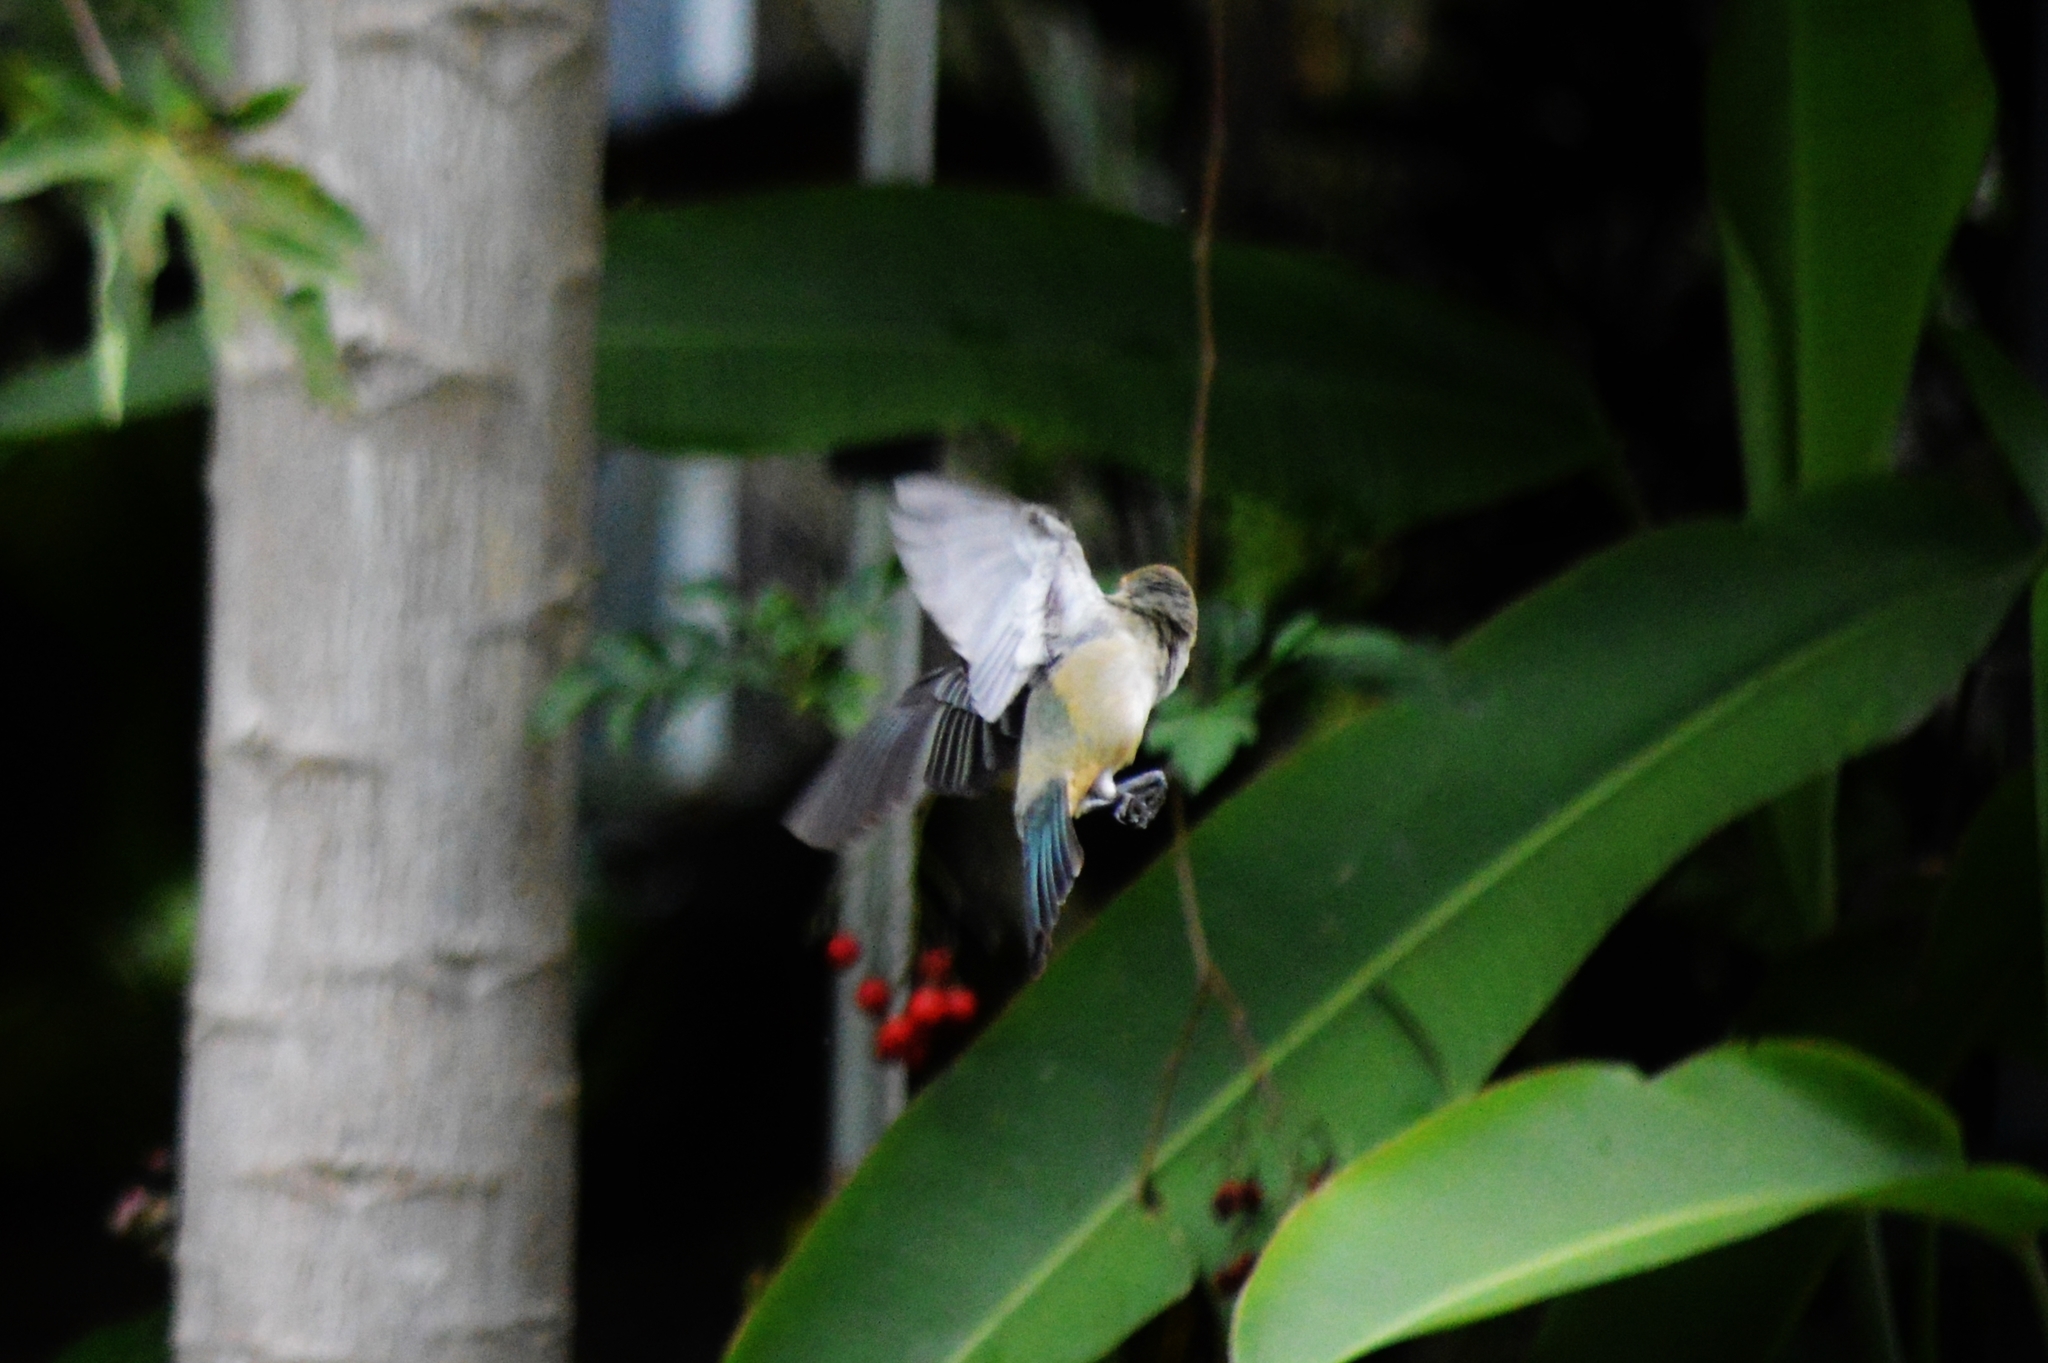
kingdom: Animalia
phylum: Chordata
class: Aves
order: Passeriformes
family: Thraupidae
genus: Stilpnia
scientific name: Stilpnia cayana
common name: Burnished-buff tanager
